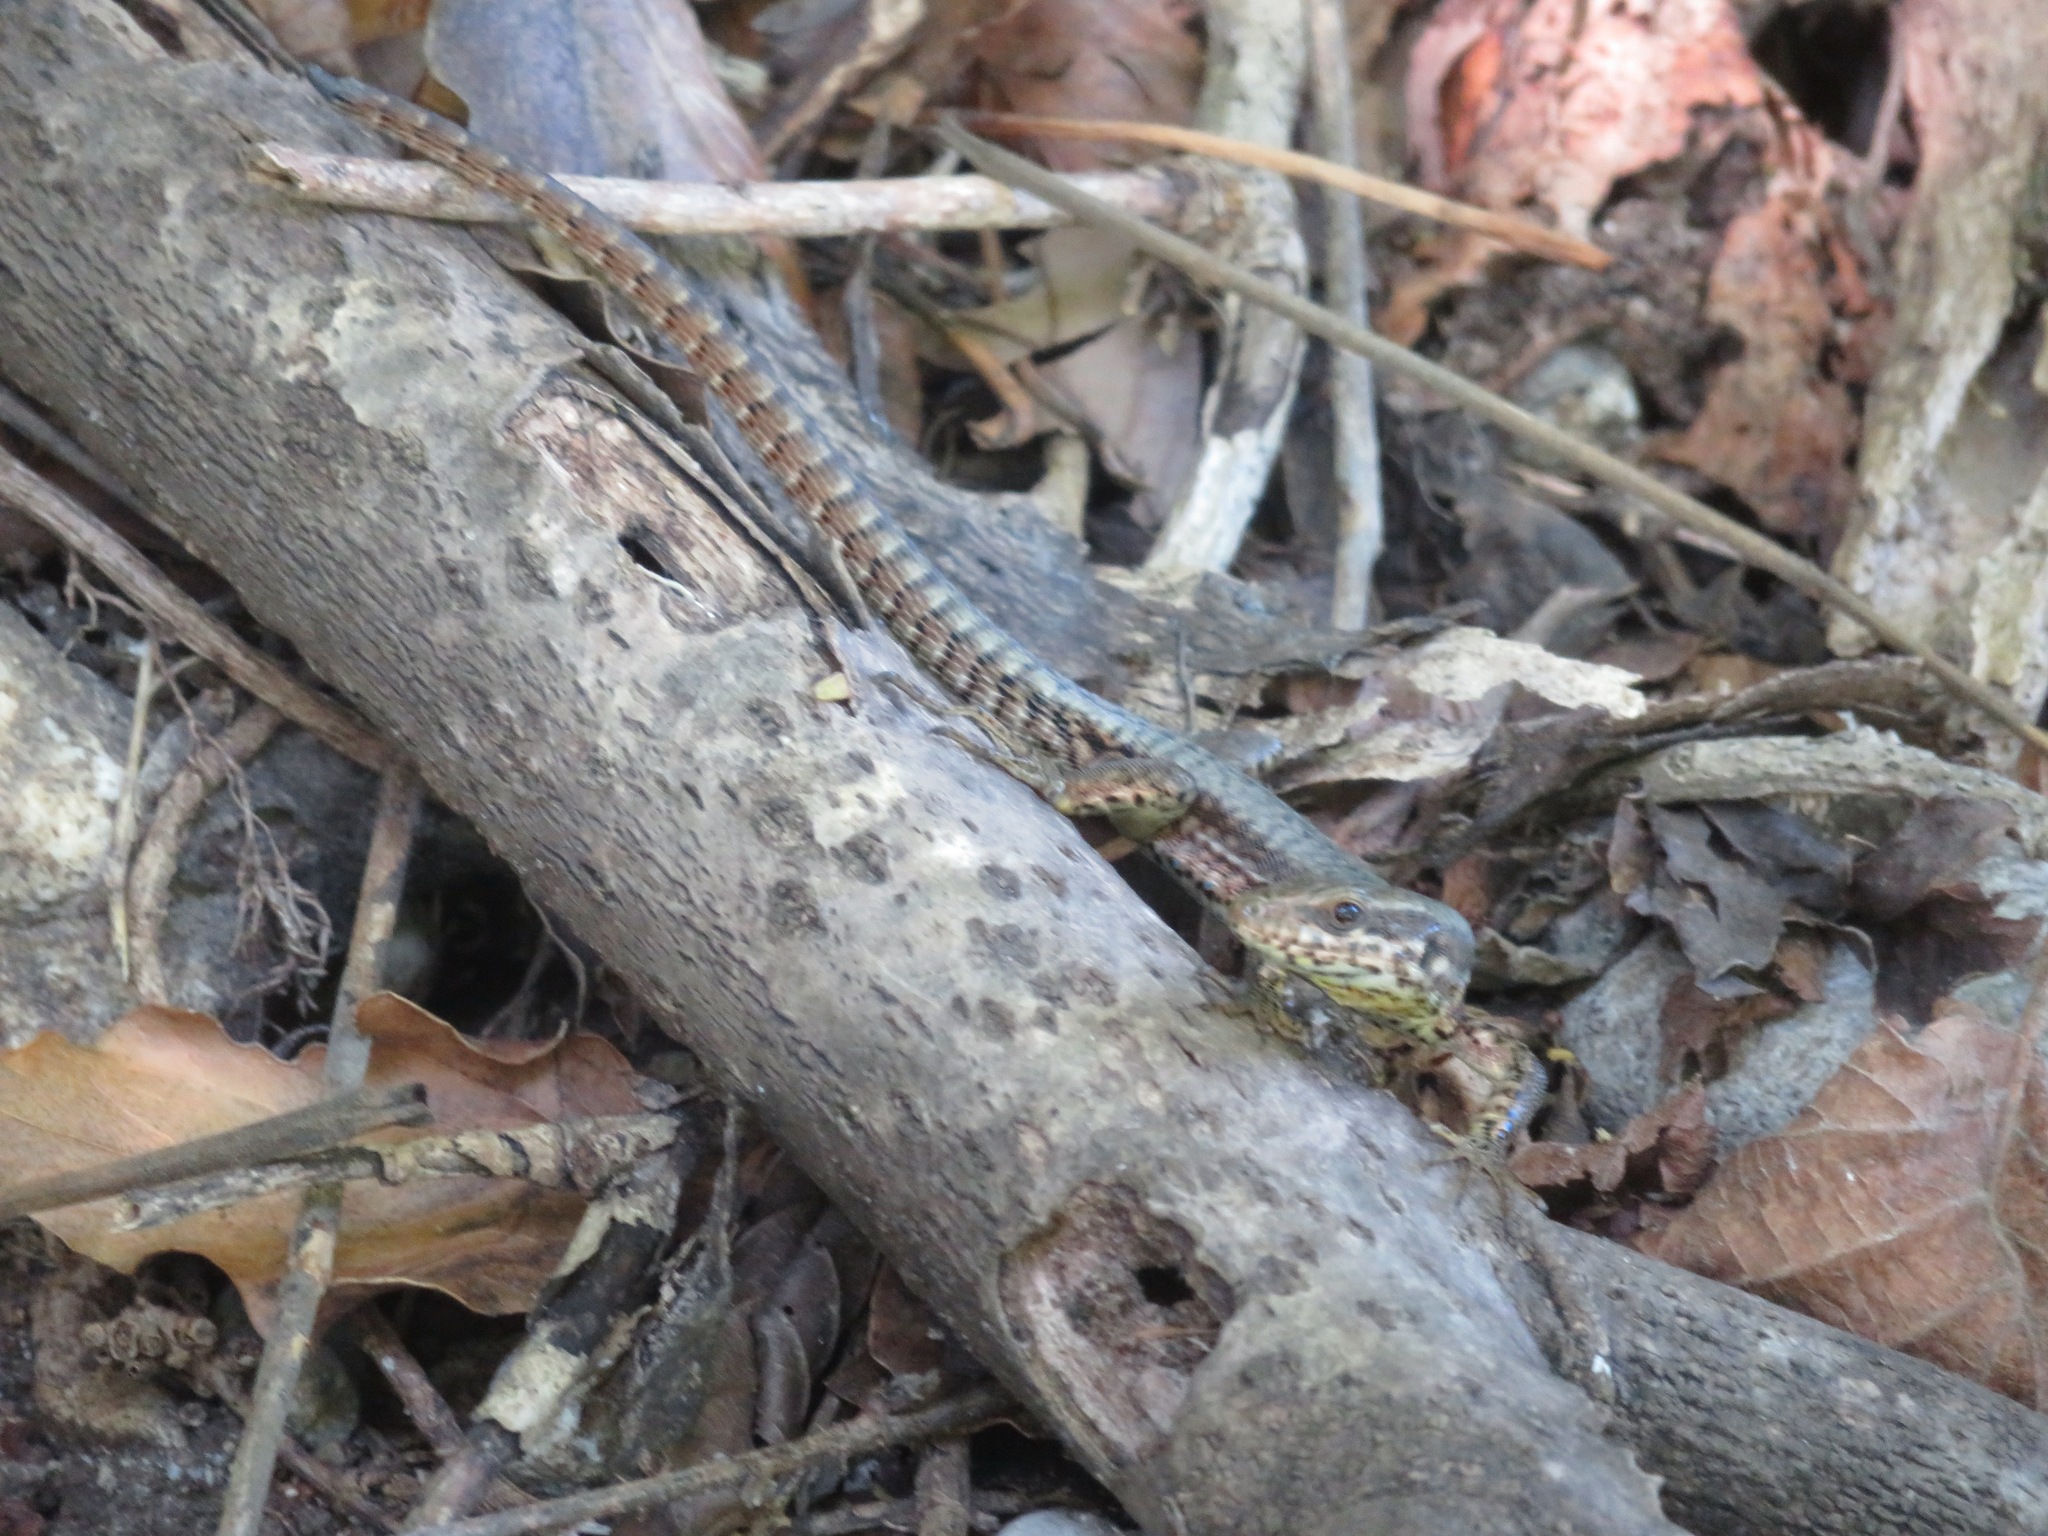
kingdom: Animalia
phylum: Chordata
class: Squamata
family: Lacertidae
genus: Podarcis
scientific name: Podarcis muralis
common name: Common wall lizard
